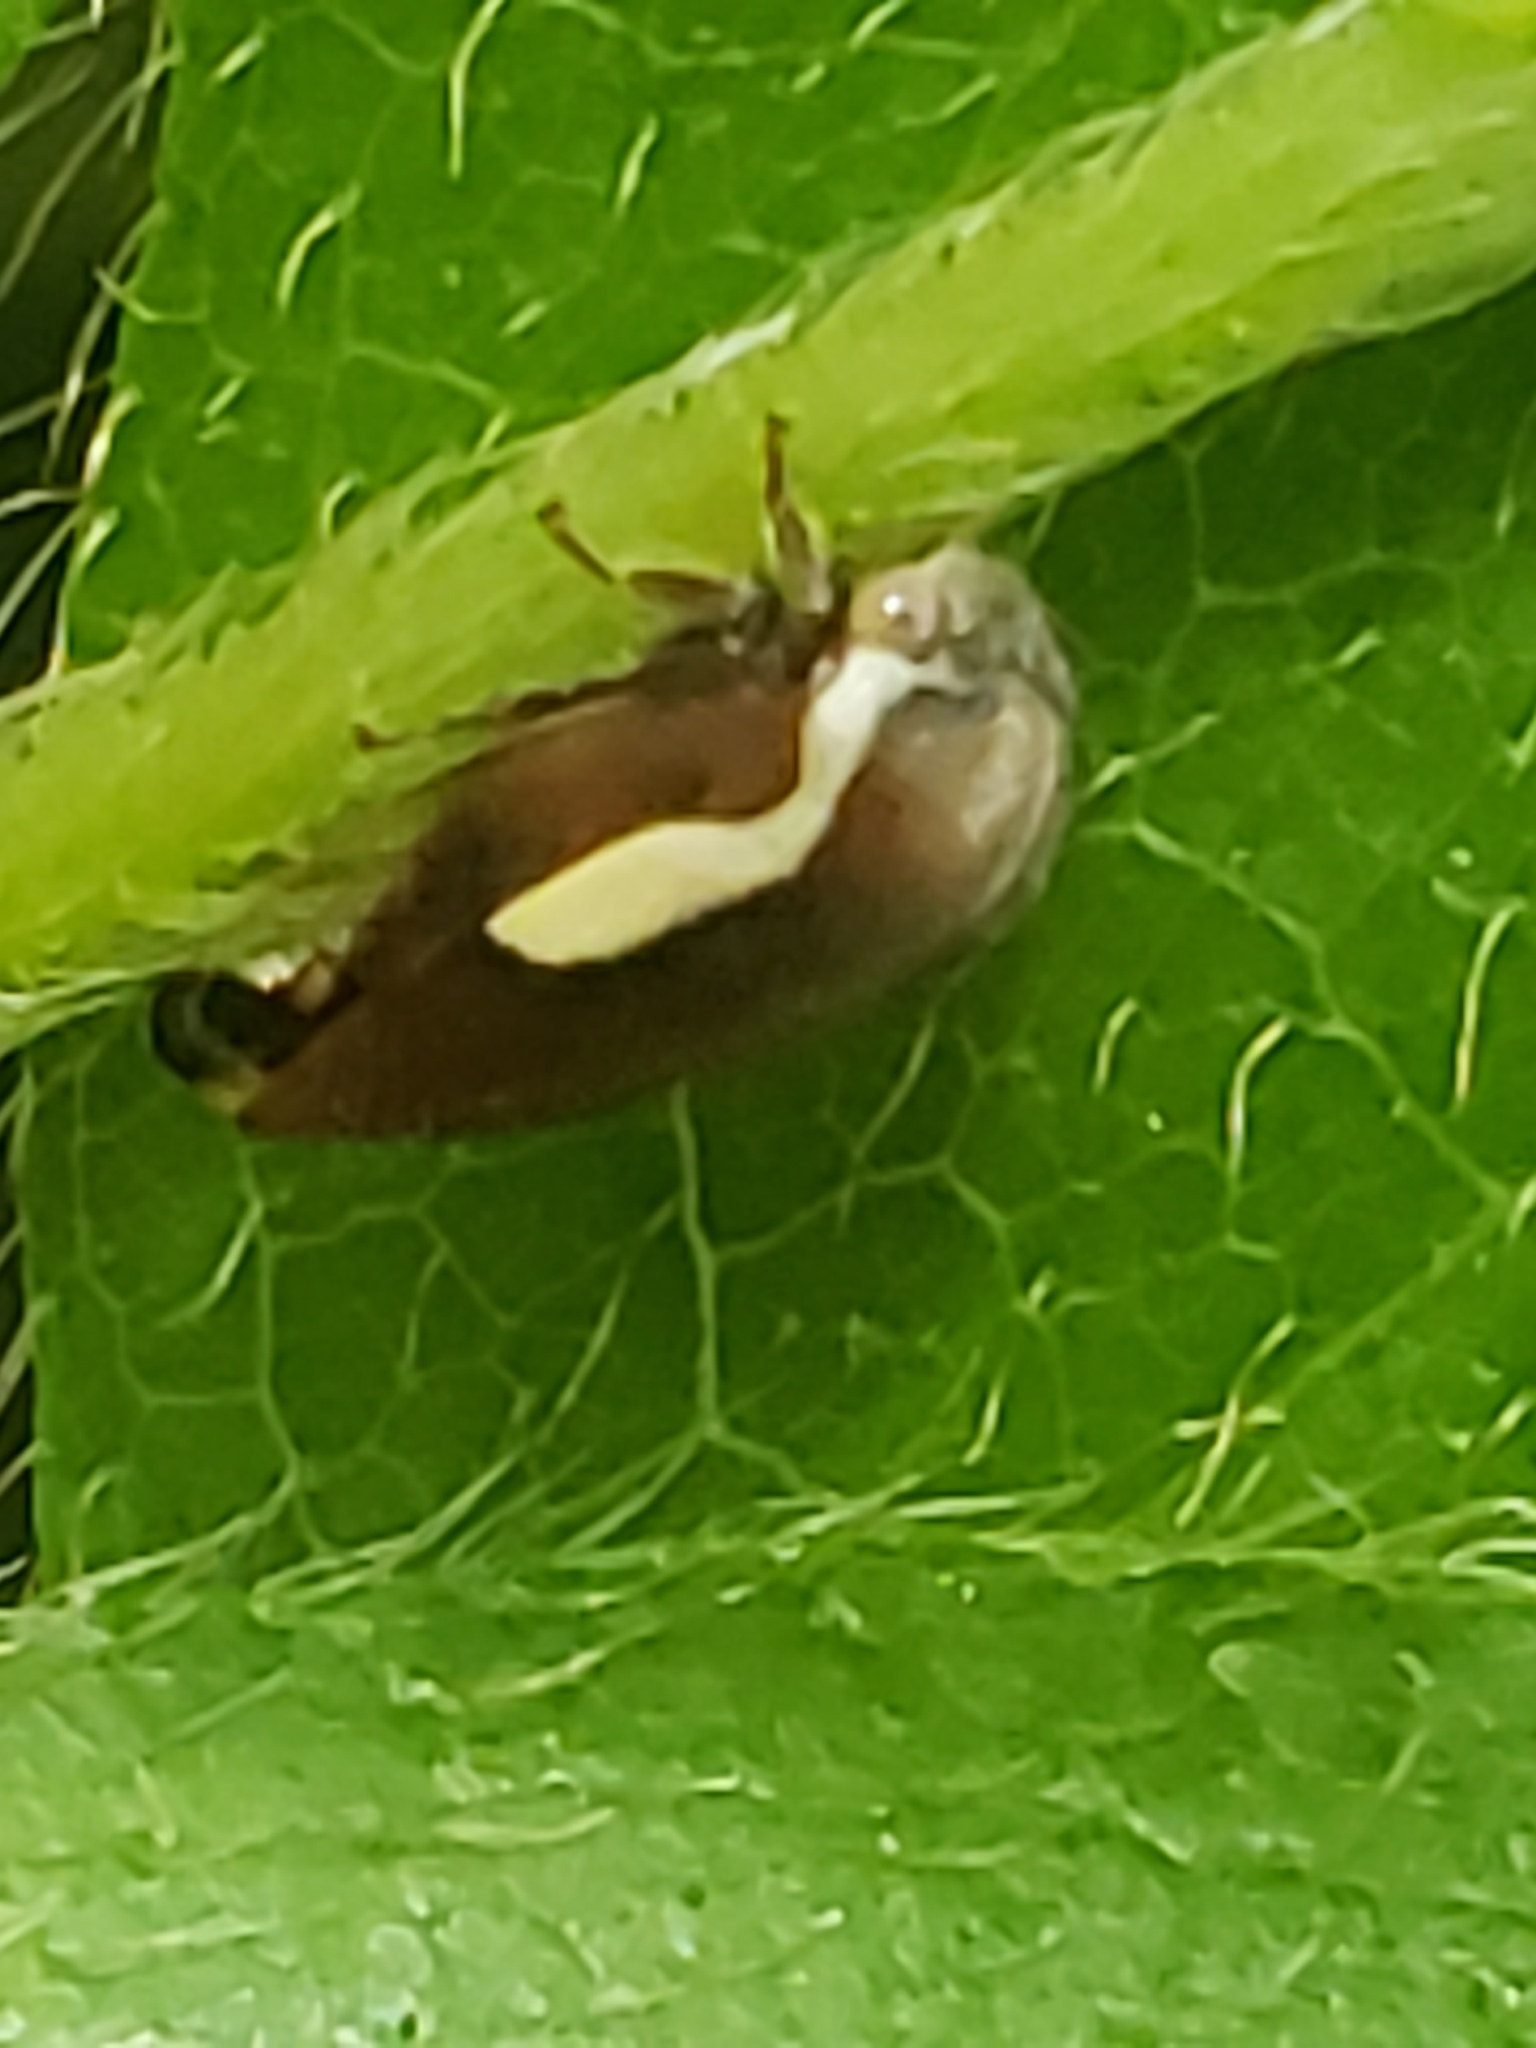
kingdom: Animalia
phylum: Arthropoda
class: Insecta
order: Hemiptera
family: Membracidae
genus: Ophiderma
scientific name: Ophiderma flavicephala
